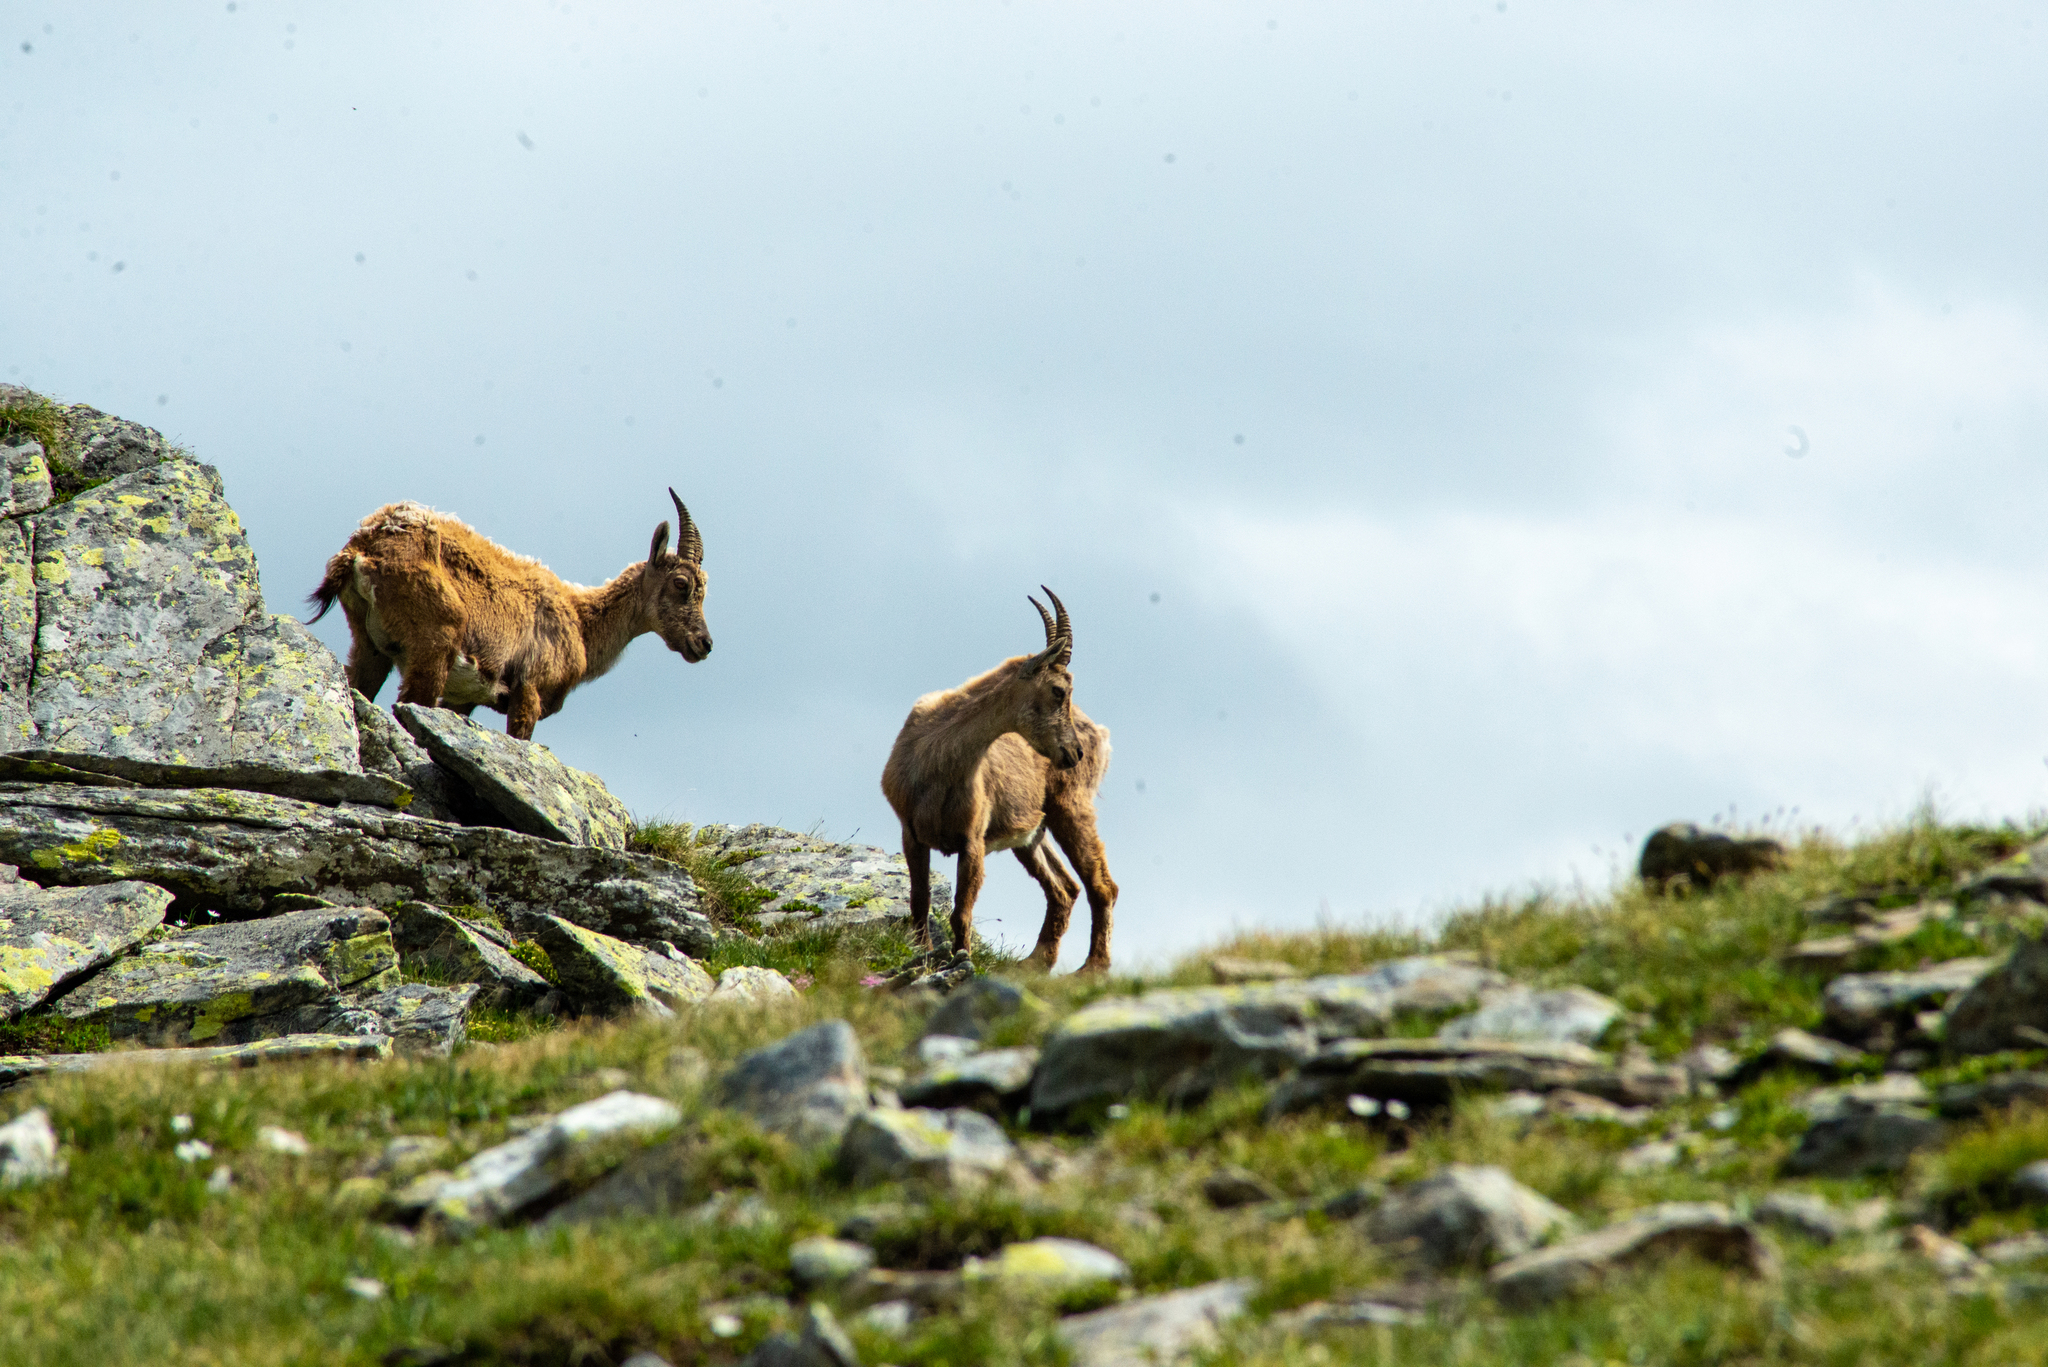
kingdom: Animalia
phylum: Chordata
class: Mammalia
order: Artiodactyla
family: Bovidae
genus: Capra
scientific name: Capra ibex
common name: Alpine ibex
